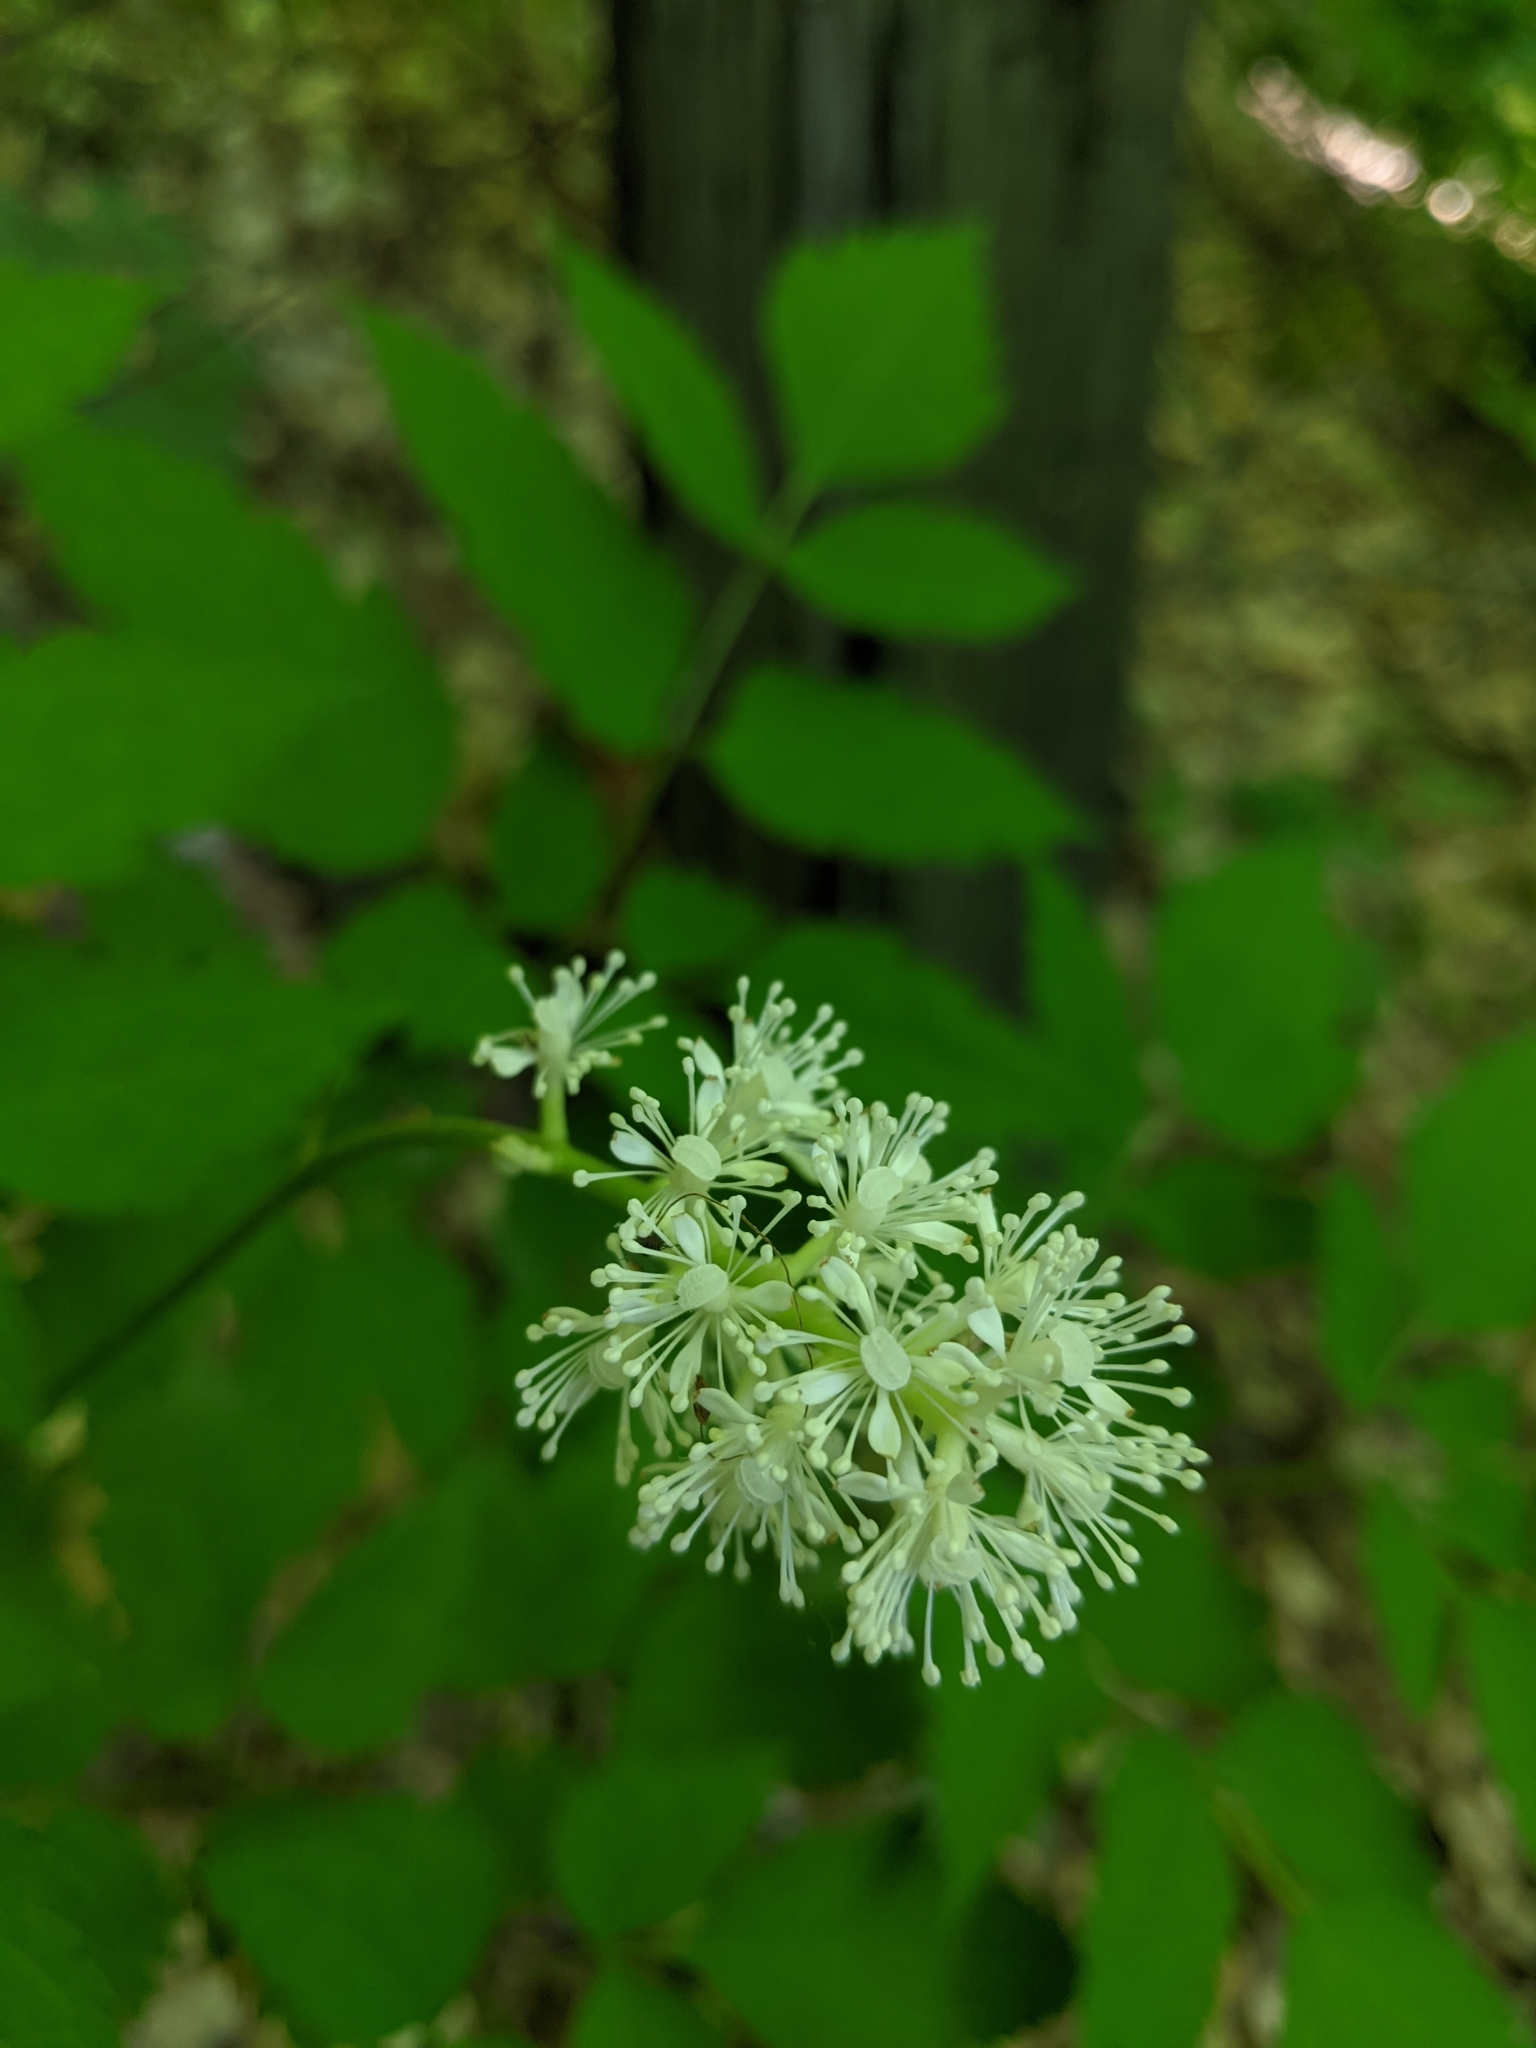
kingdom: Plantae
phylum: Tracheophyta
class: Magnoliopsida
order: Ranunculales
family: Ranunculaceae
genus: Actaea
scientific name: Actaea pachypoda
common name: Doll's-eyes
